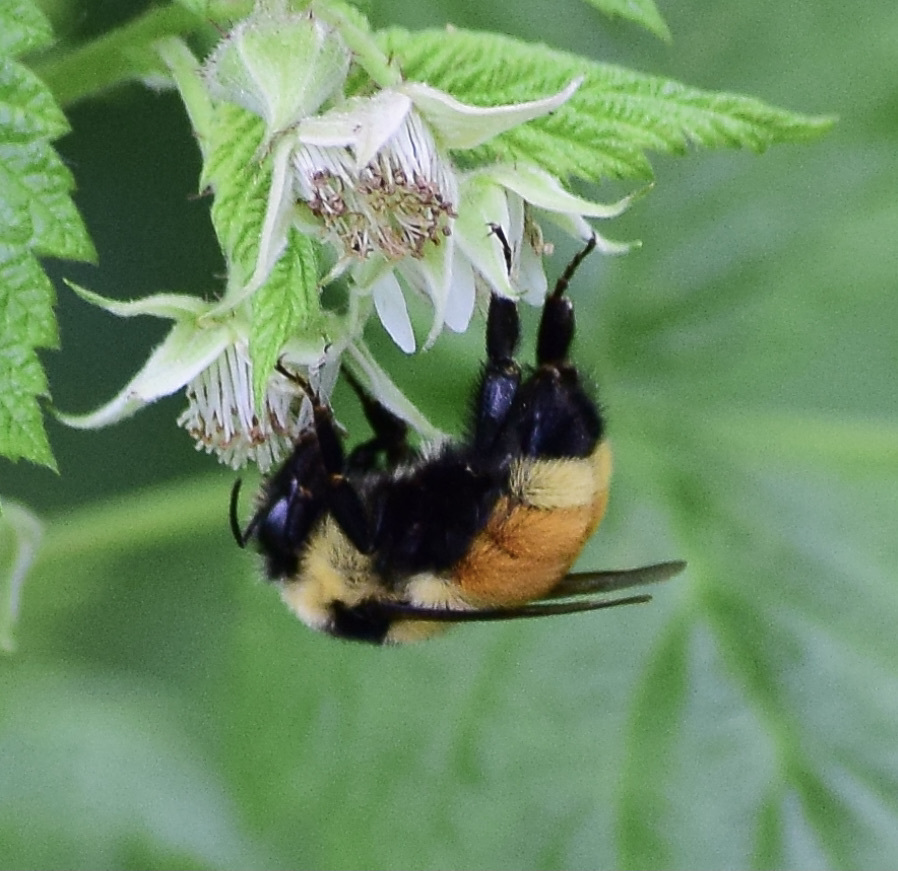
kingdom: Animalia
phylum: Arthropoda
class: Insecta
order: Hymenoptera
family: Apidae
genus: Bombus
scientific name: Bombus ternarius
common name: Tri-colored bumble bee
